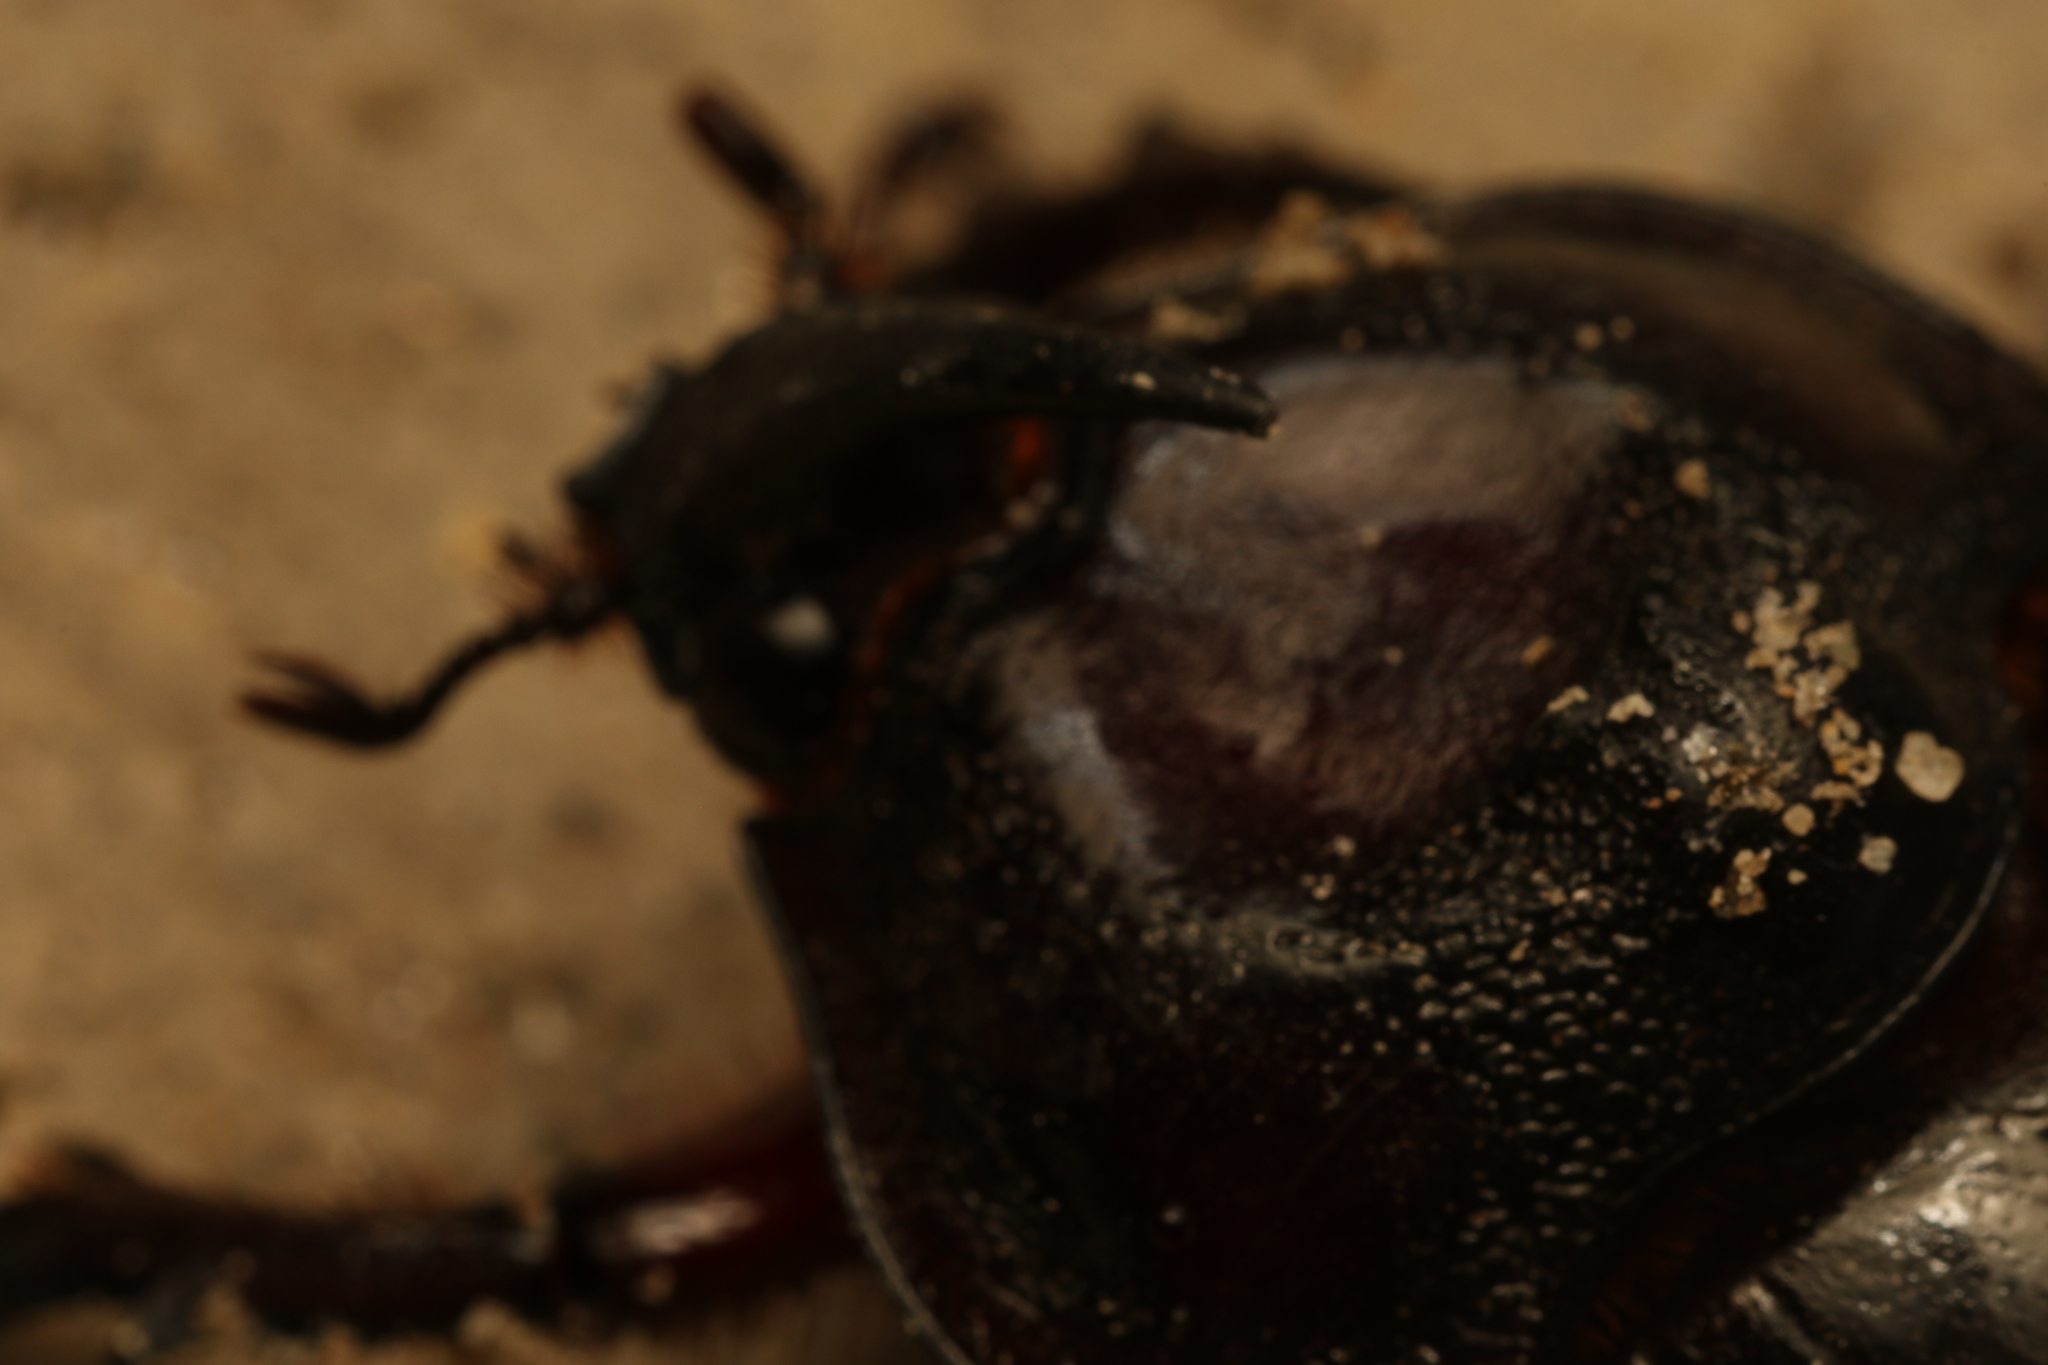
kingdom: Animalia
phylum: Arthropoda
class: Insecta
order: Coleoptera
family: Scarabaeidae
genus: Enema
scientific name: Enema pan
